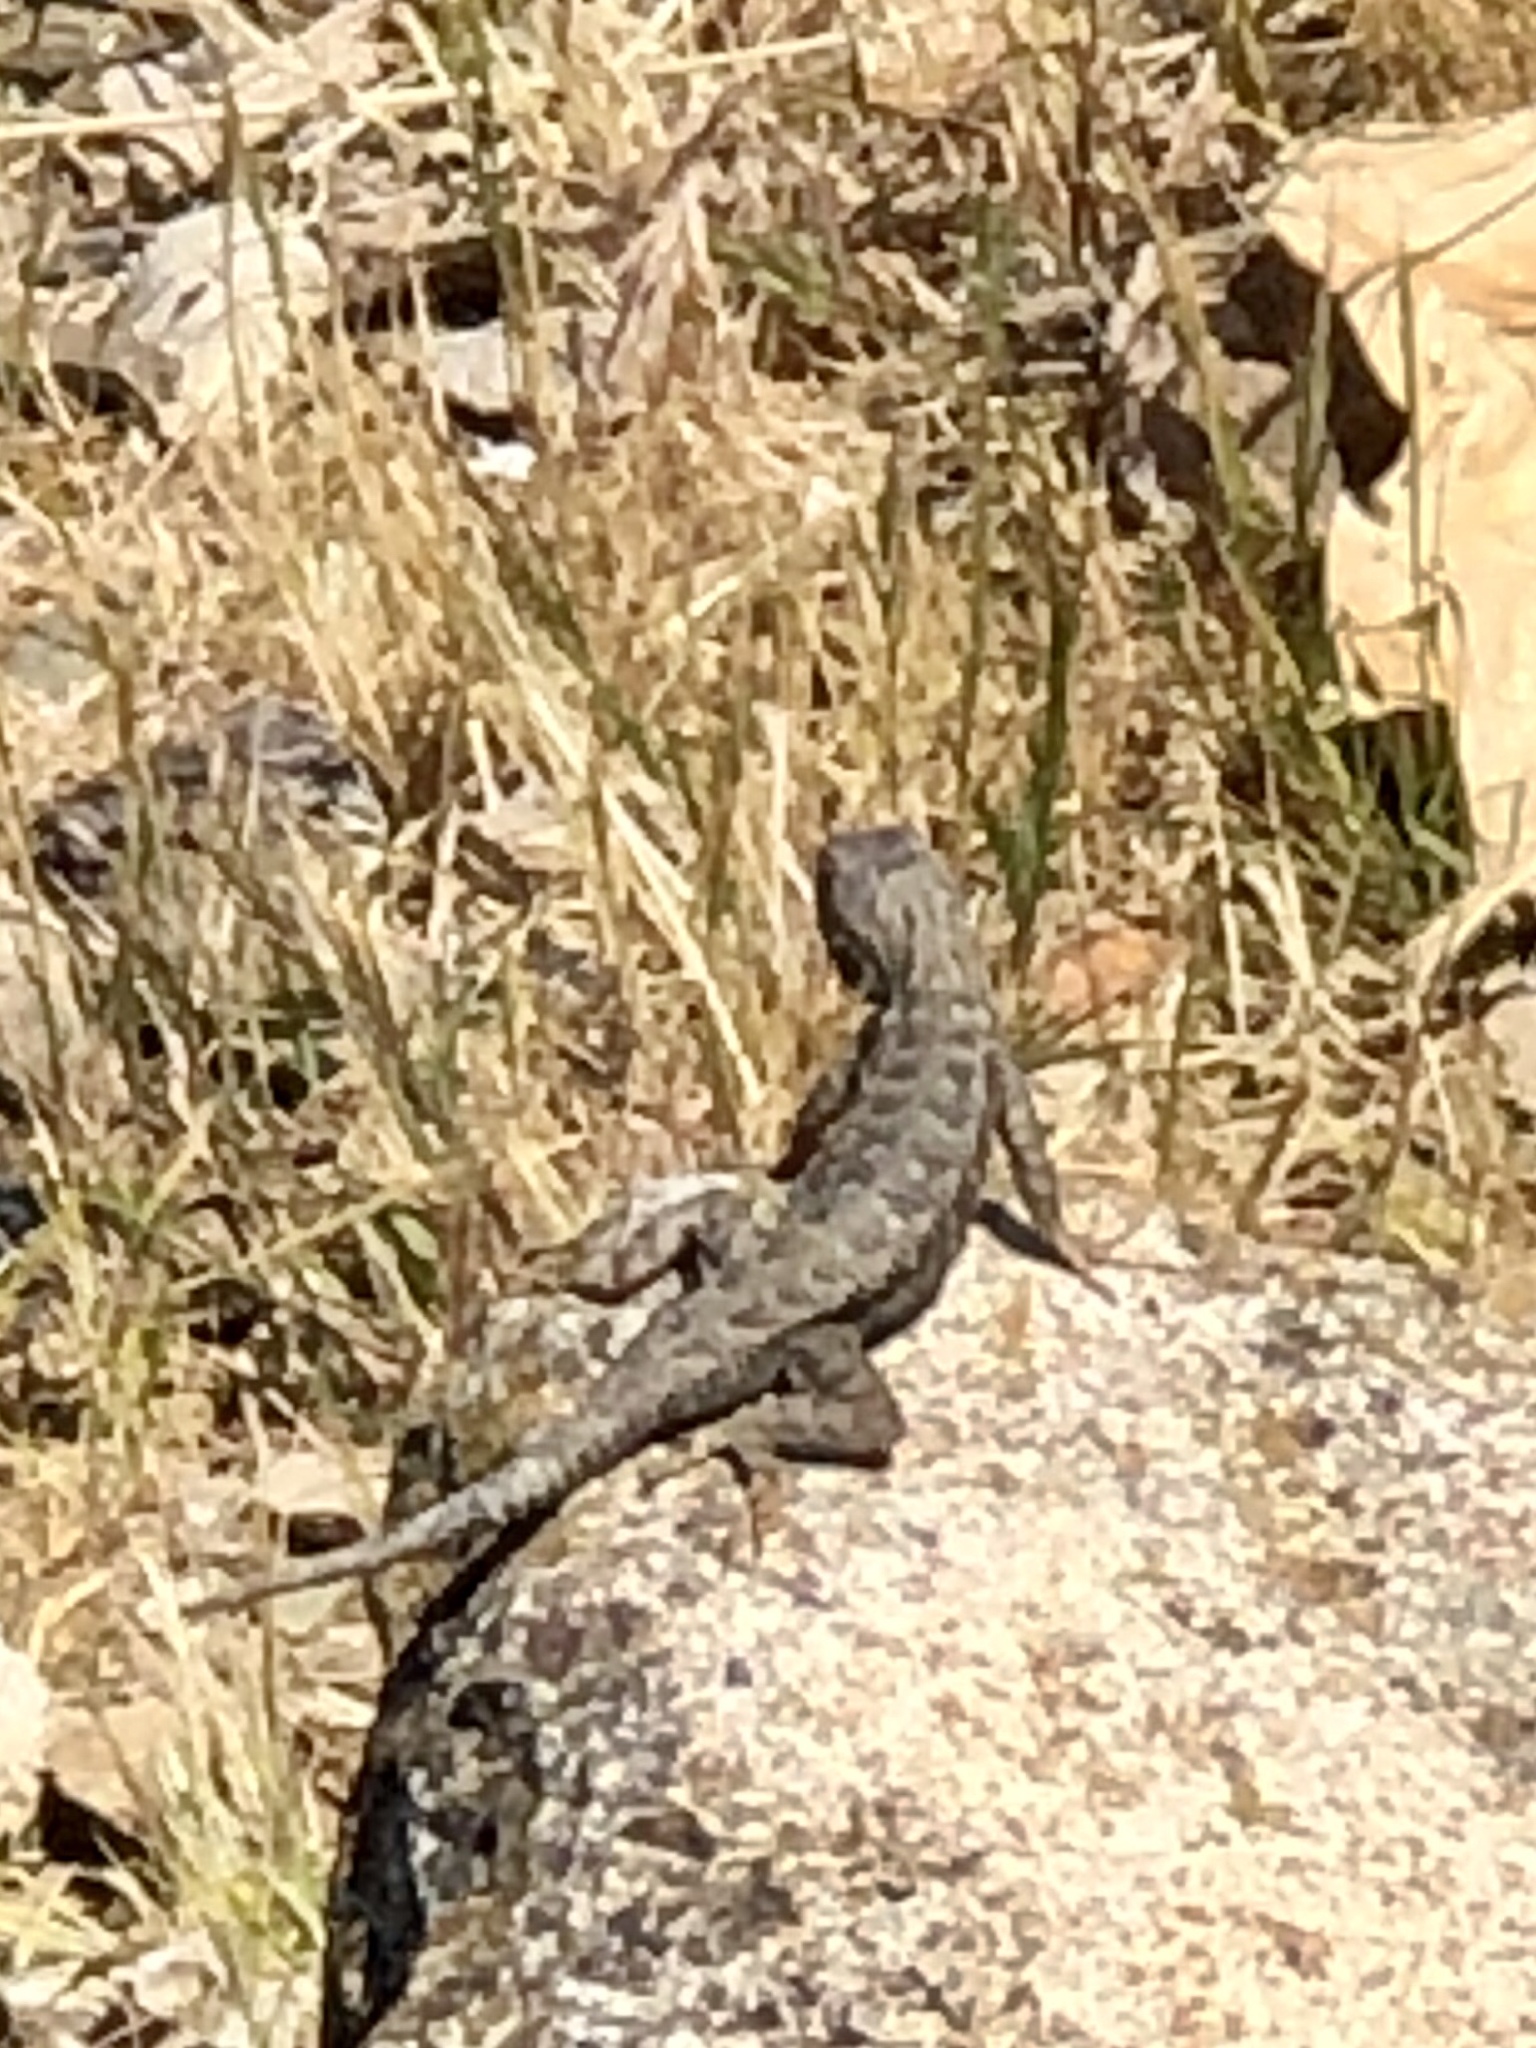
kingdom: Animalia
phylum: Chordata
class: Squamata
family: Phrynosomatidae
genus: Sceloporus
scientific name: Sceloporus occidentalis
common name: Western fence lizard
